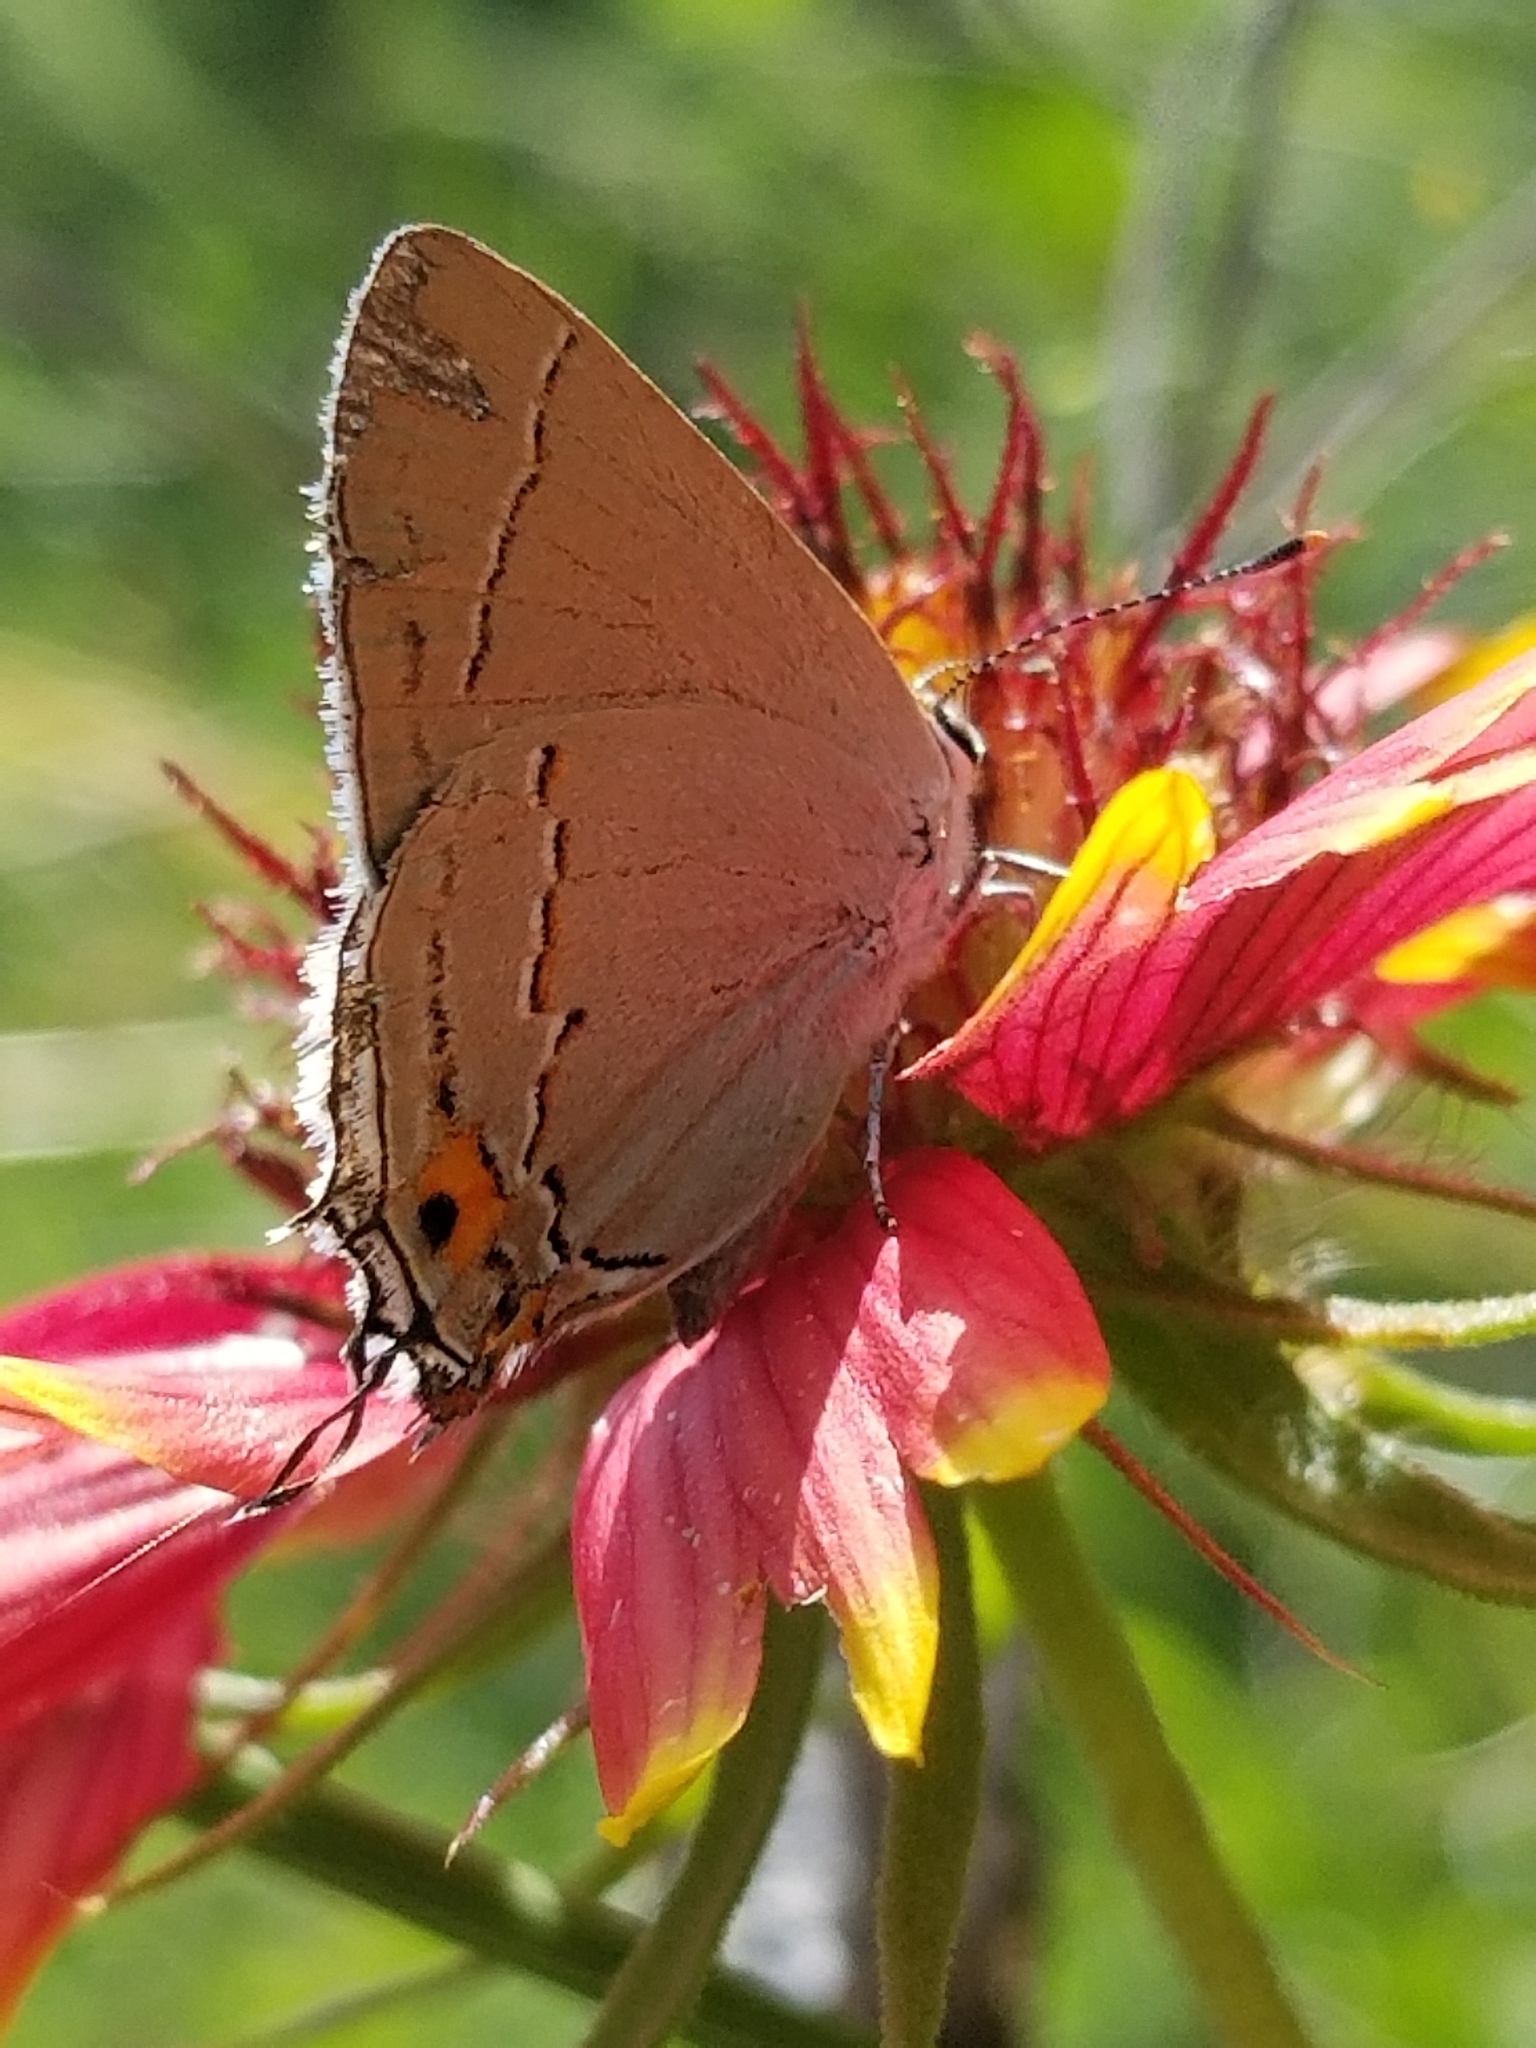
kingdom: Animalia
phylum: Arthropoda
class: Insecta
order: Lepidoptera
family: Lycaenidae
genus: Strymon
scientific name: Strymon melinus
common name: Gray hairstreak
